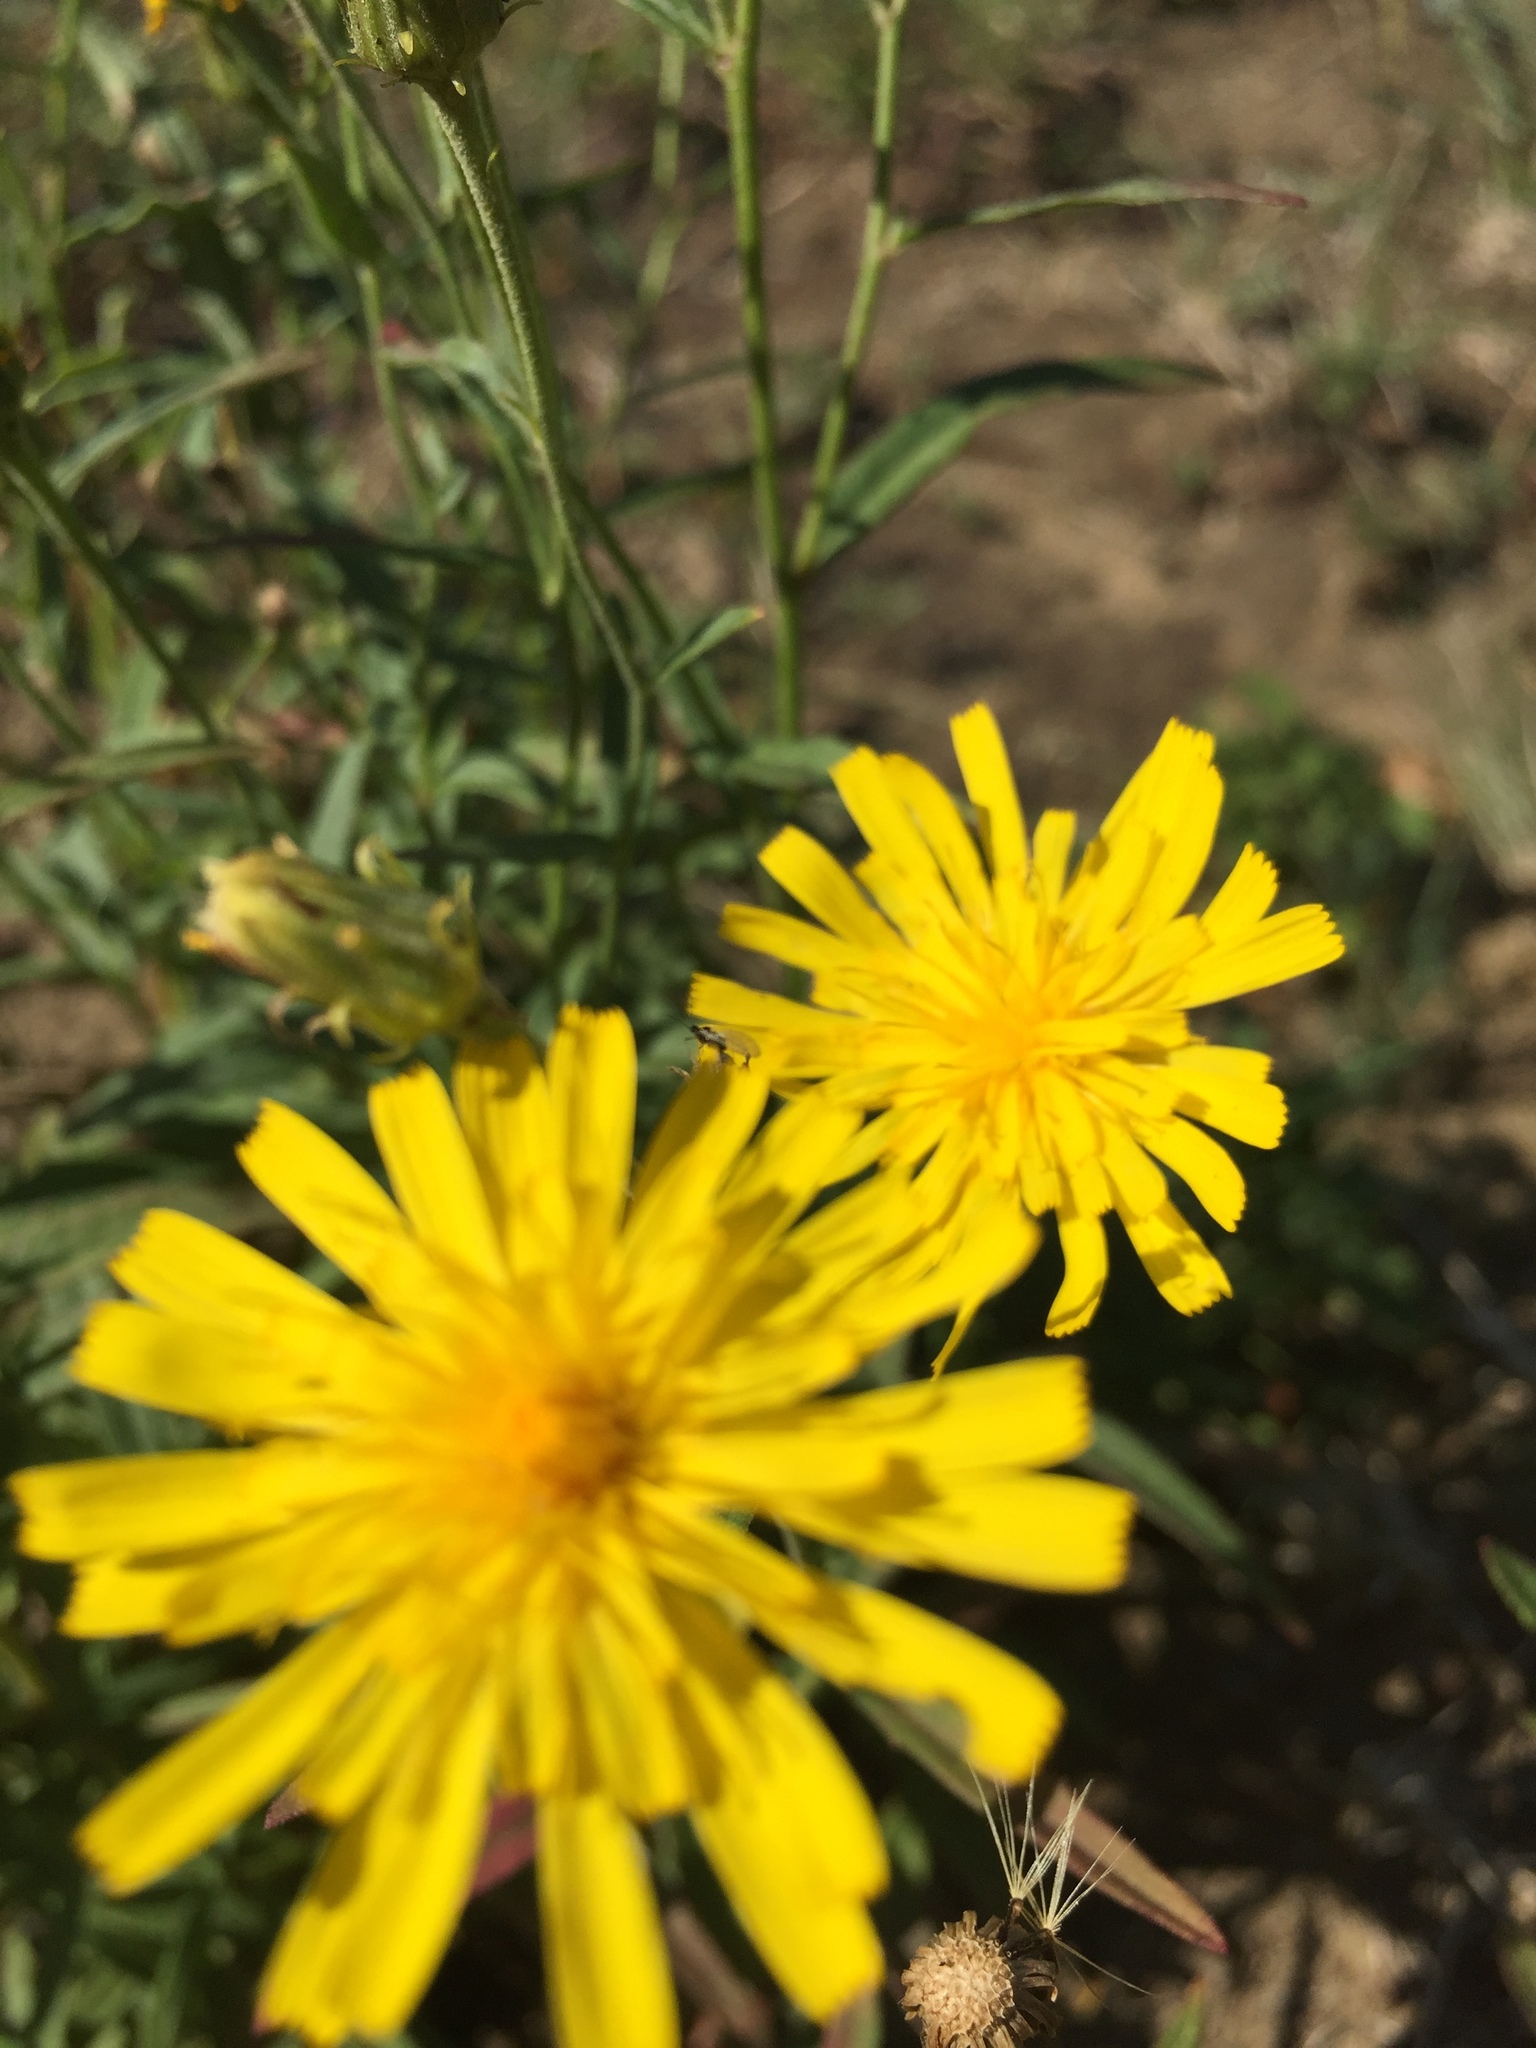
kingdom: Plantae
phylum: Tracheophyta
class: Magnoliopsida
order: Asterales
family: Asteraceae
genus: Hieracium
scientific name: Hieracium umbellatum
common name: Northern hawkweed
